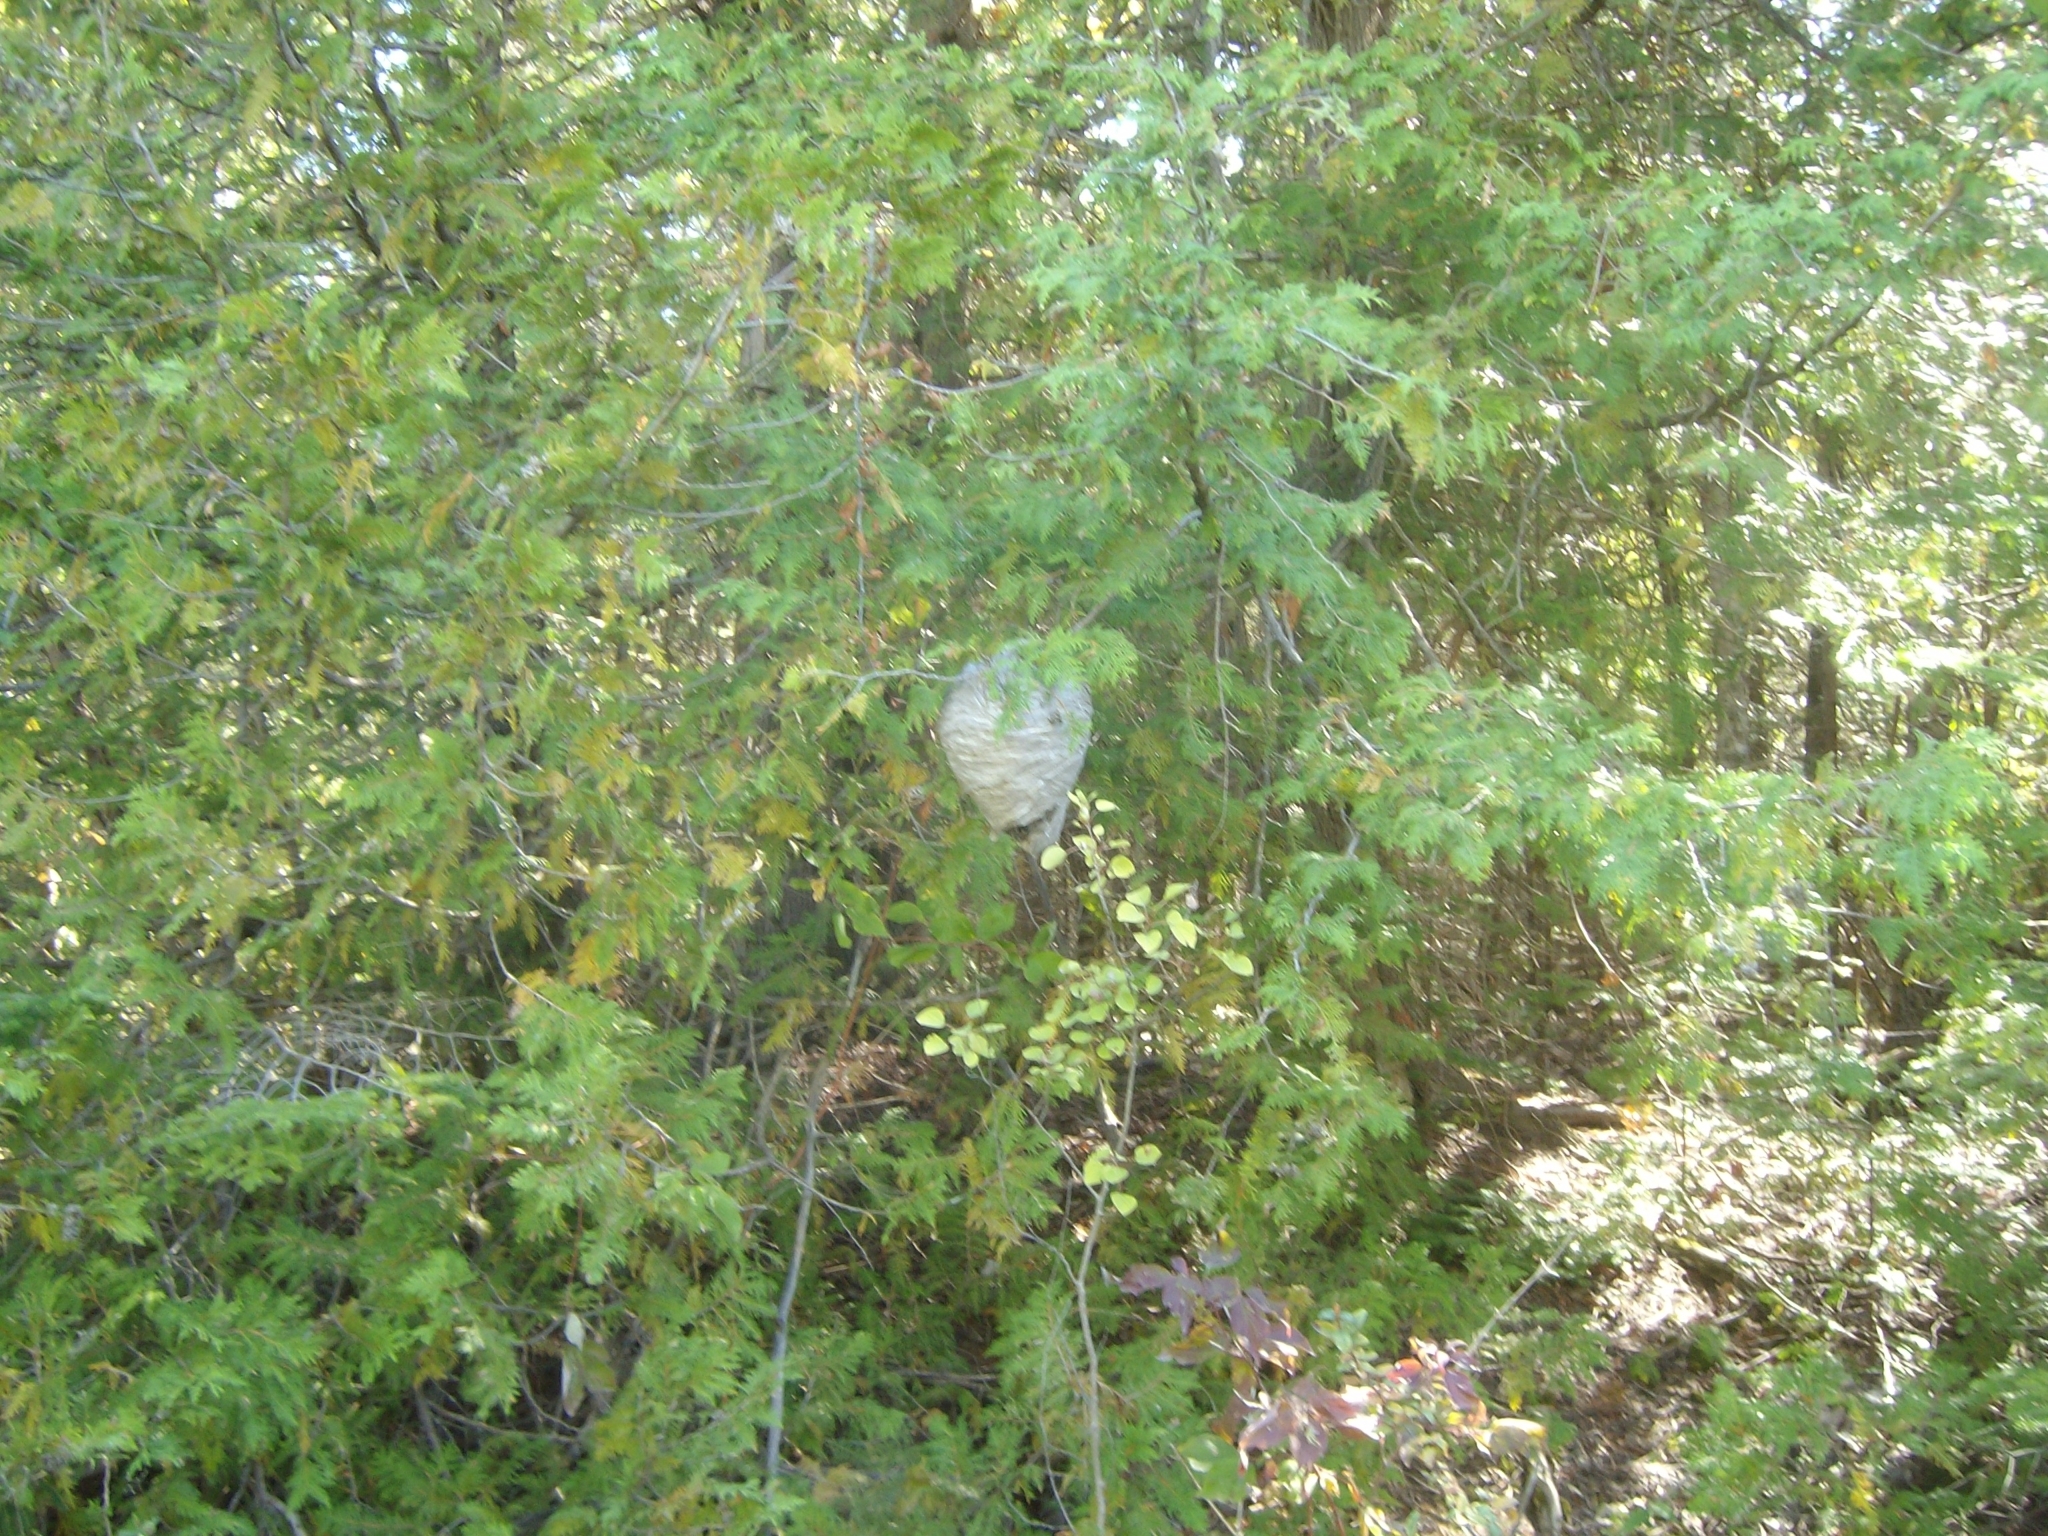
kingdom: Animalia
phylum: Arthropoda
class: Insecta
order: Hymenoptera
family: Vespidae
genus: Dolichovespula
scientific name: Dolichovespula
